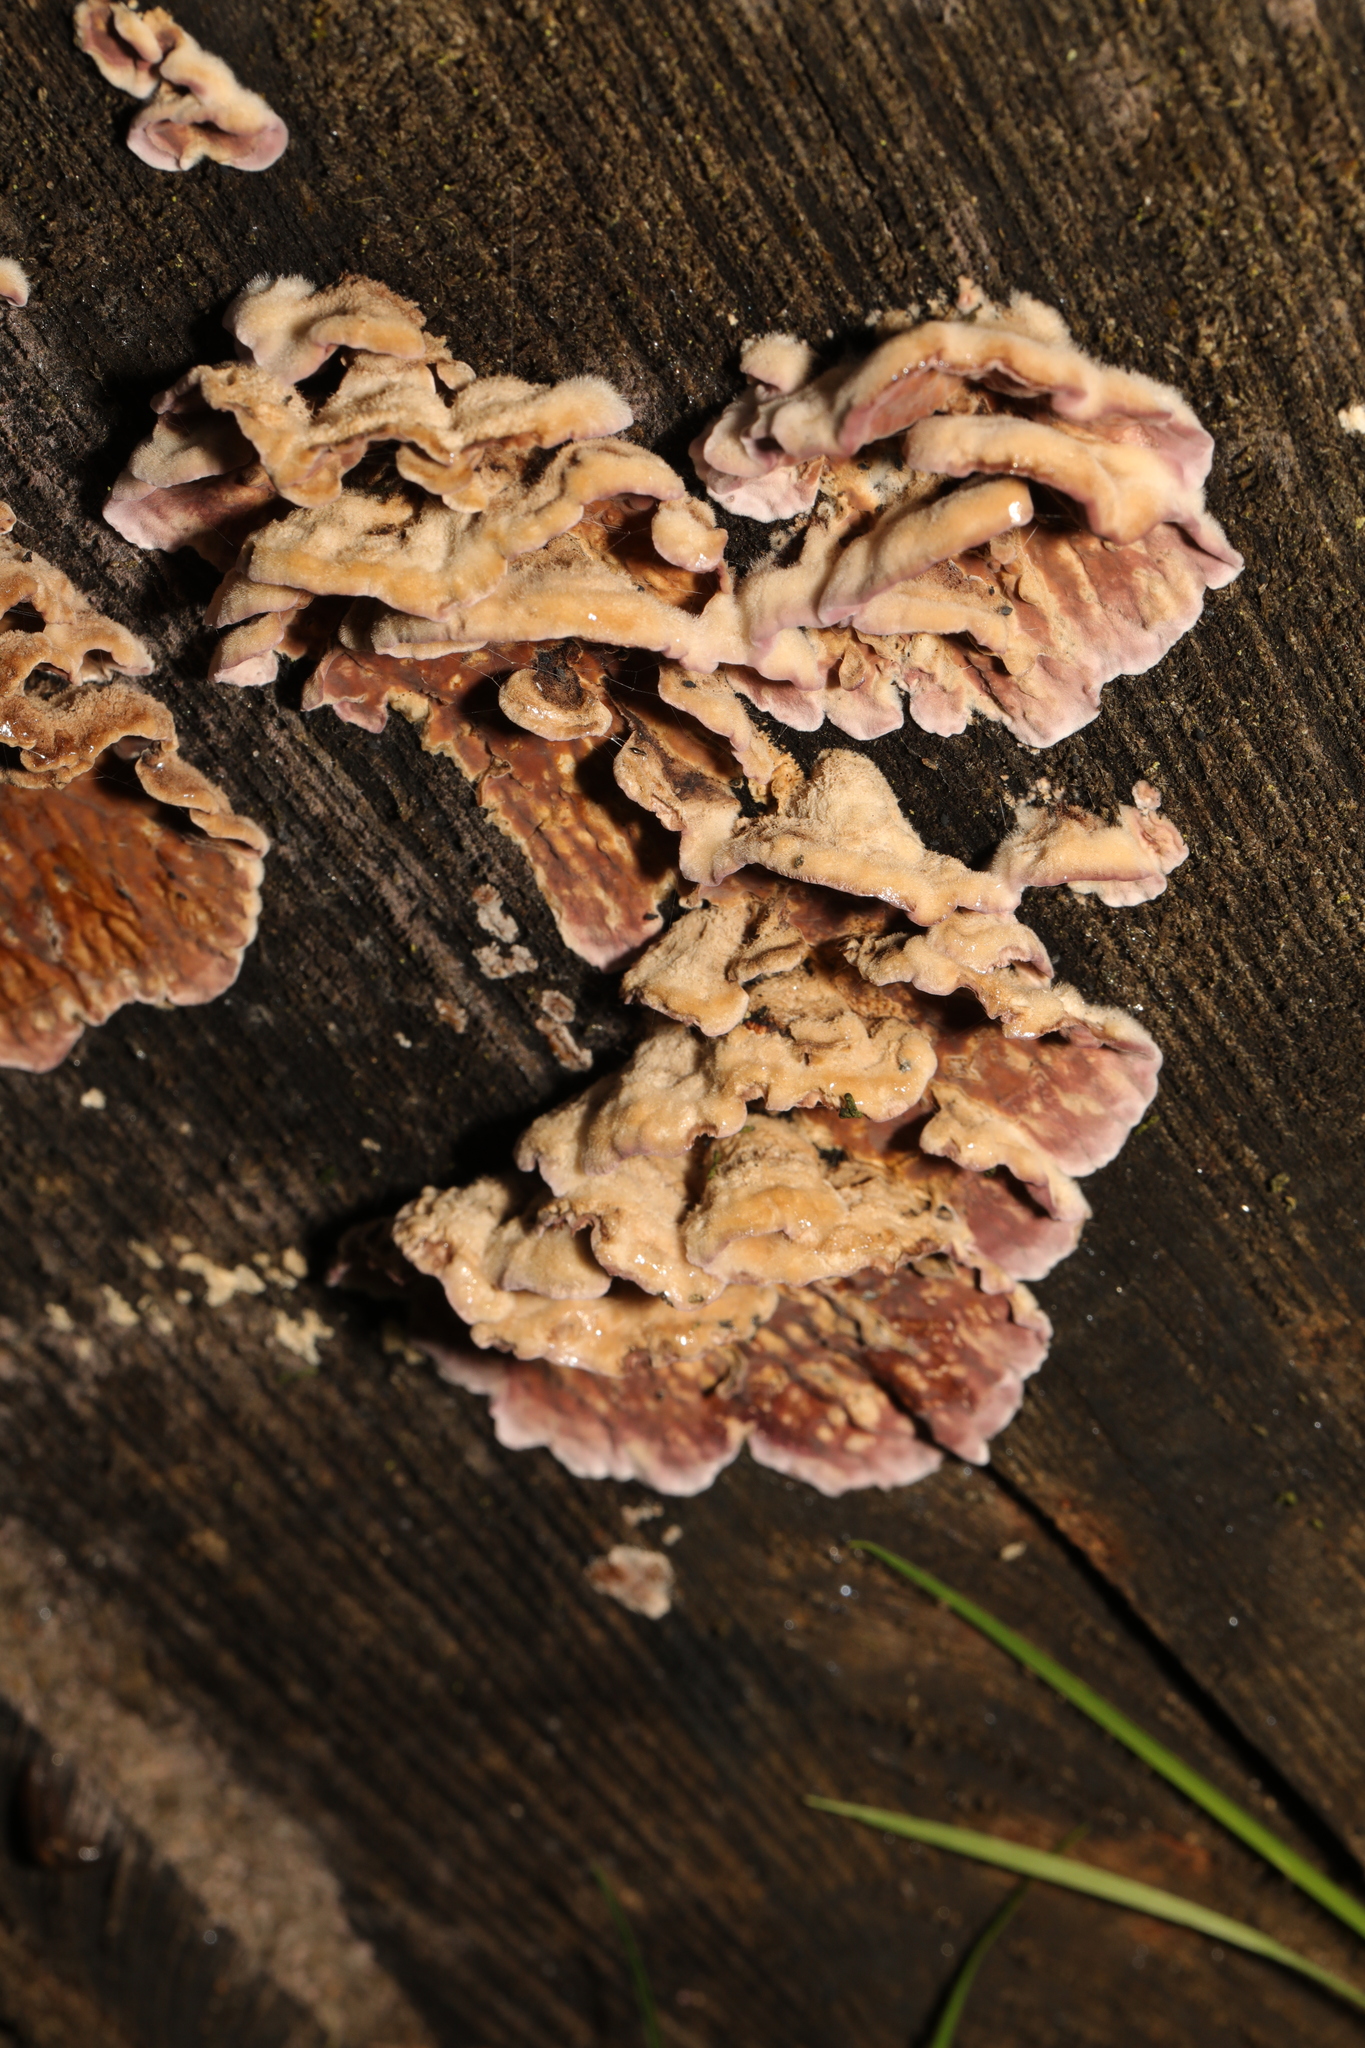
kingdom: Fungi
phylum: Basidiomycota
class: Agaricomycetes
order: Agaricales
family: Cyphellaceae
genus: Chondrostereum
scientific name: Chondrostereum purpureum
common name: Silver leaf disease
